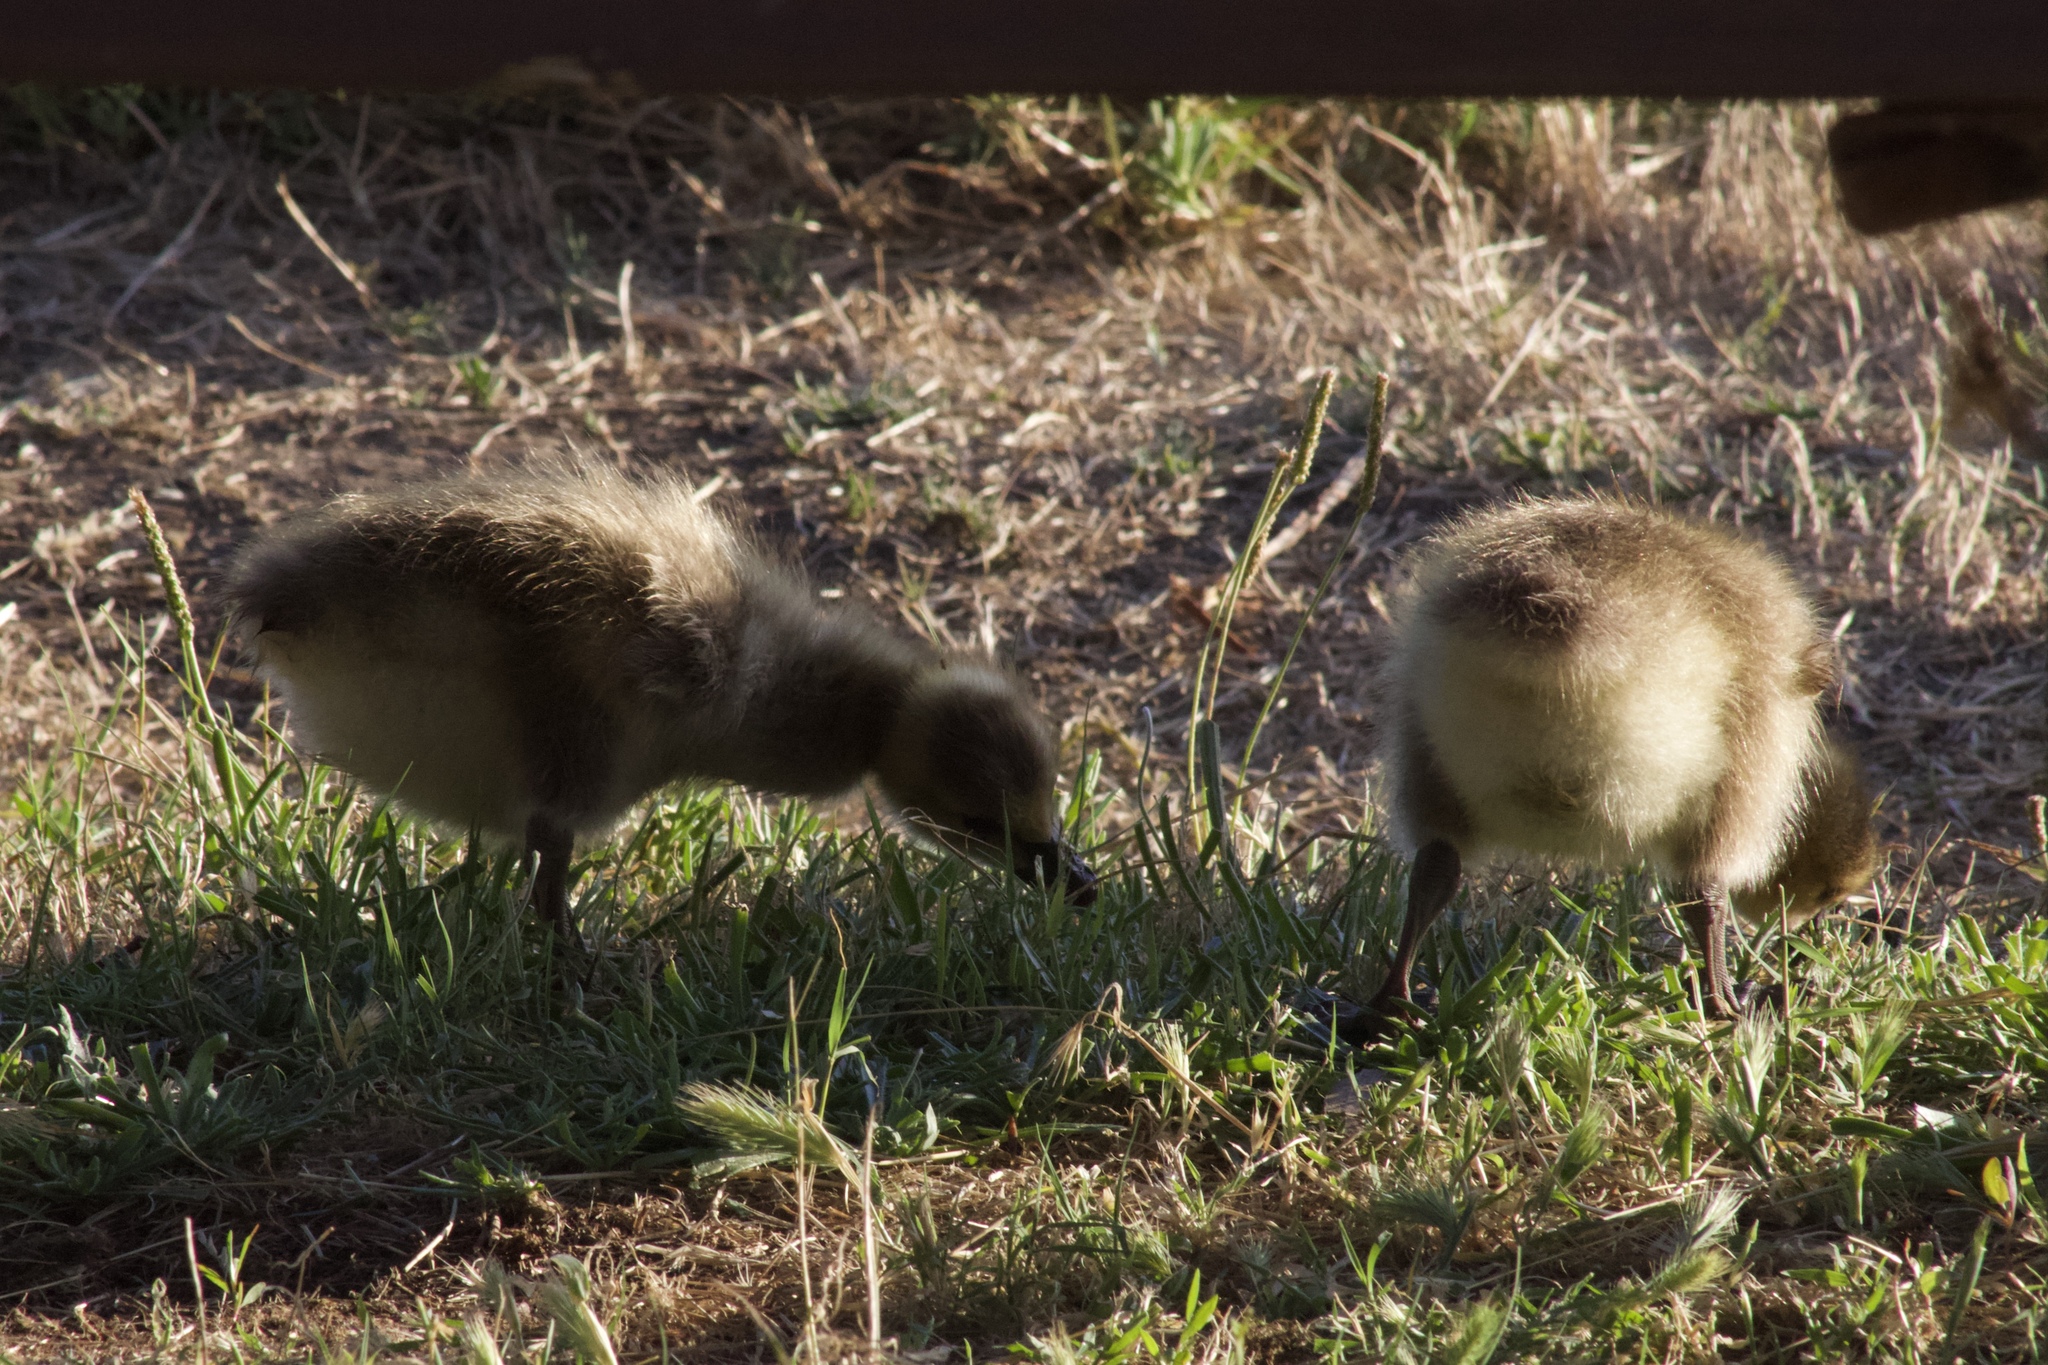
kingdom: Animalia
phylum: Chordata
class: Aves
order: Anseriformes
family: Anatidae
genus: Branta
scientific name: Branta canadensis
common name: Canada goose
